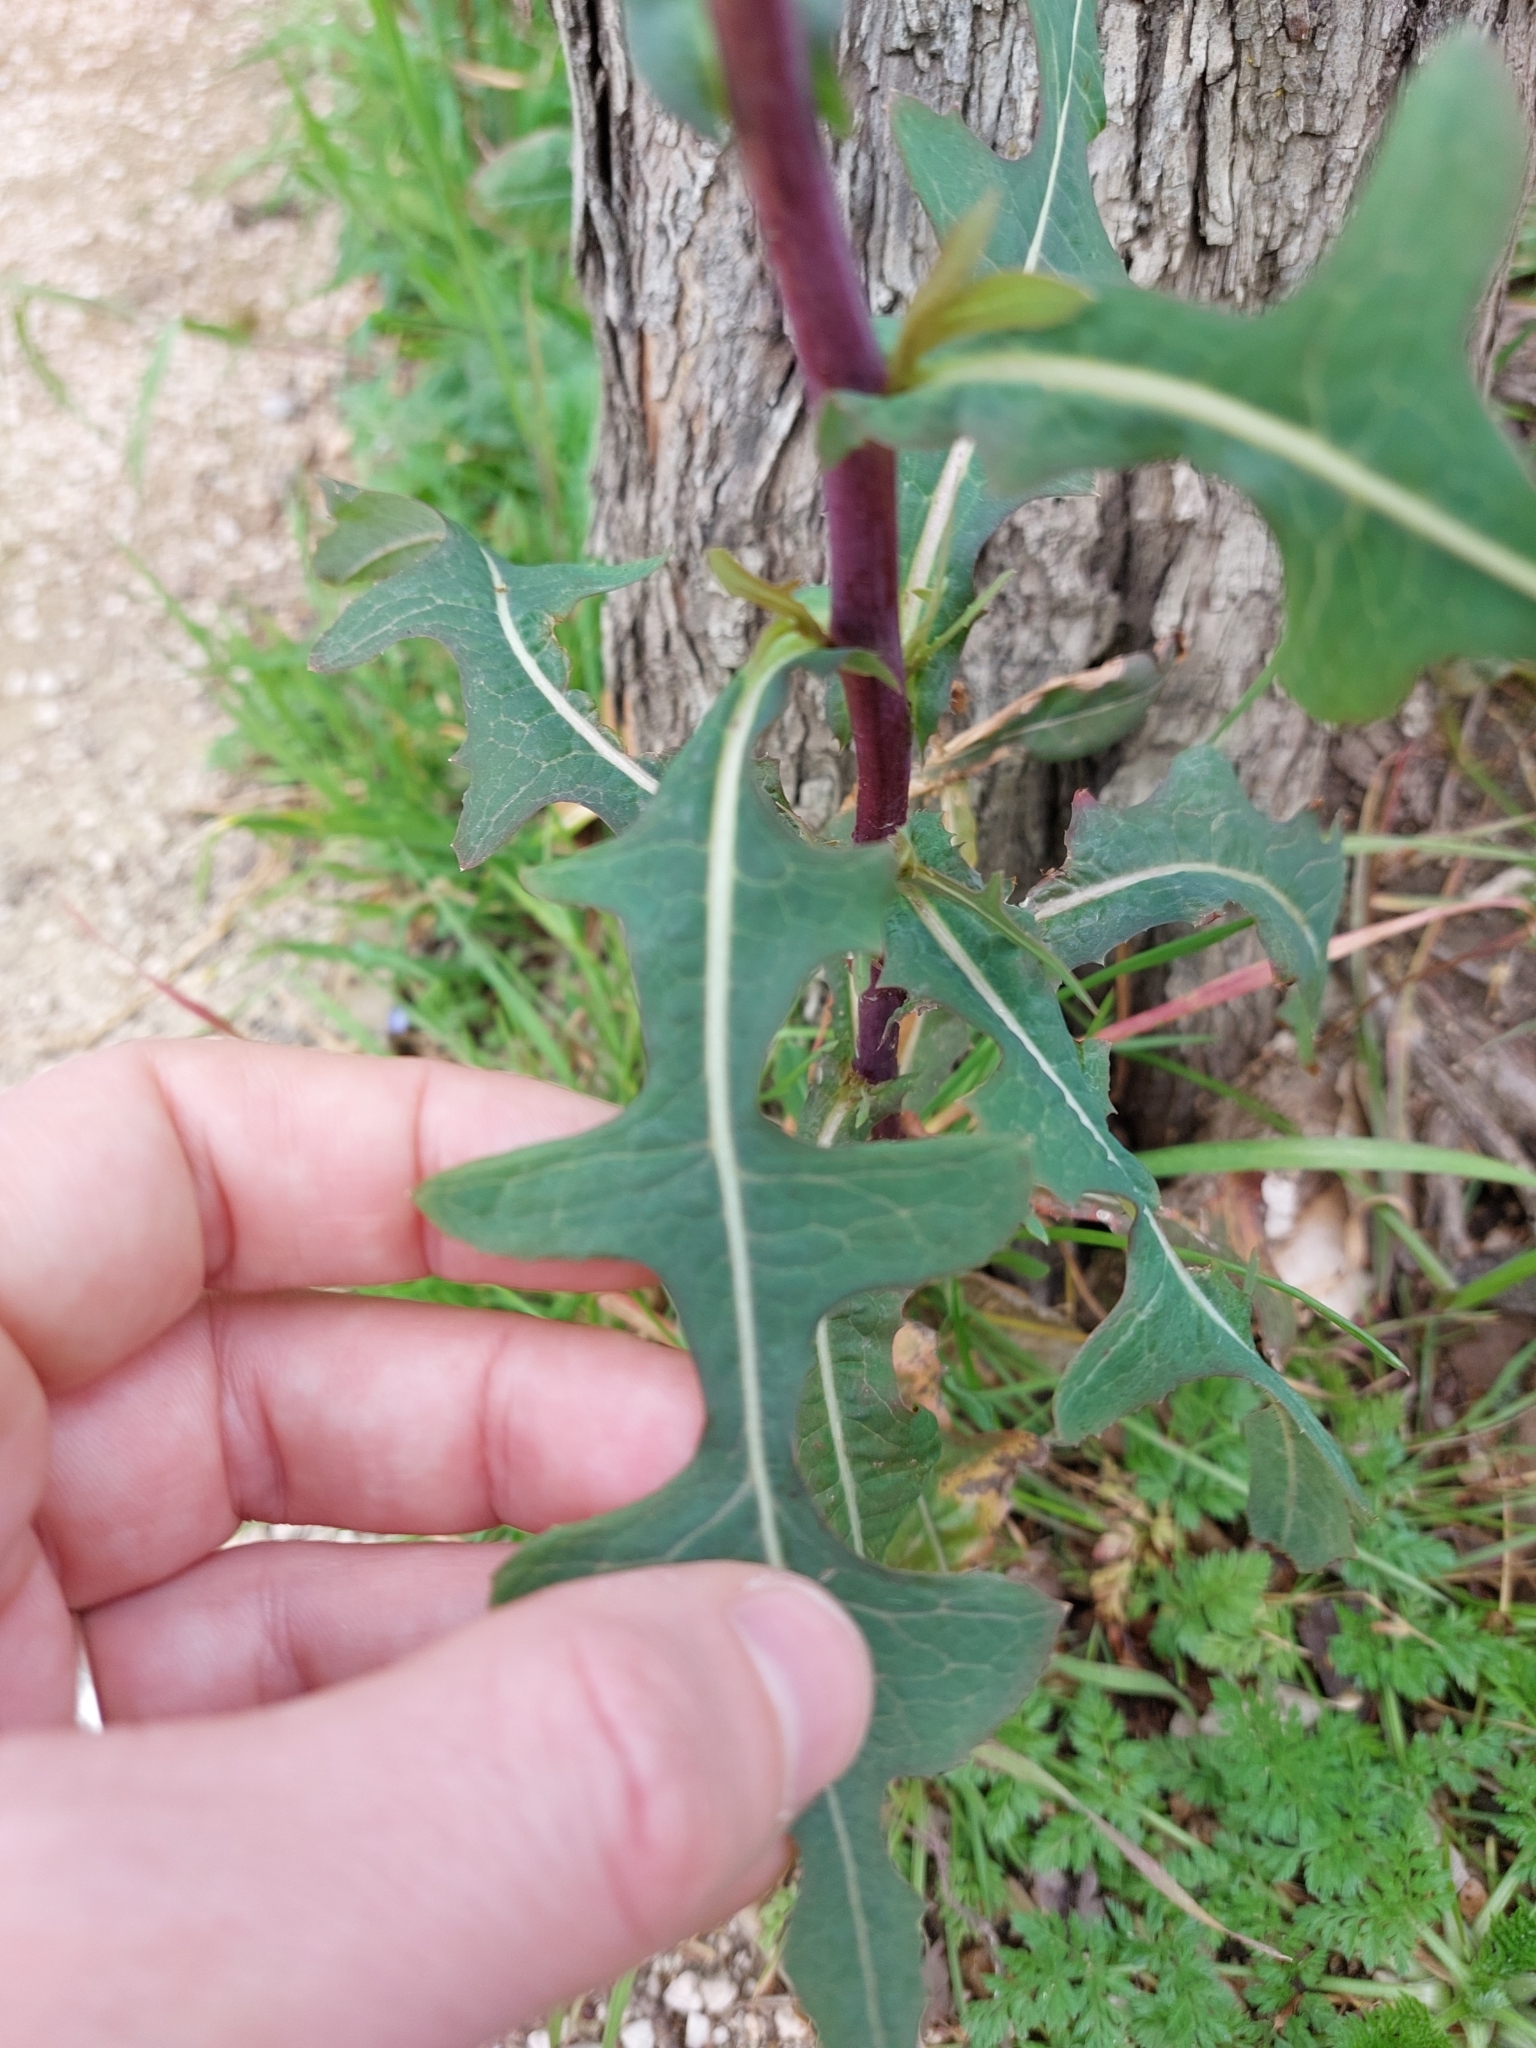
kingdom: Plantae
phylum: Tracheophyta
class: Magnoliopsida
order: Asterales
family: Asteraceae
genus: Lactuca
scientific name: Lactuca serriola
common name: Prickly lettuce
